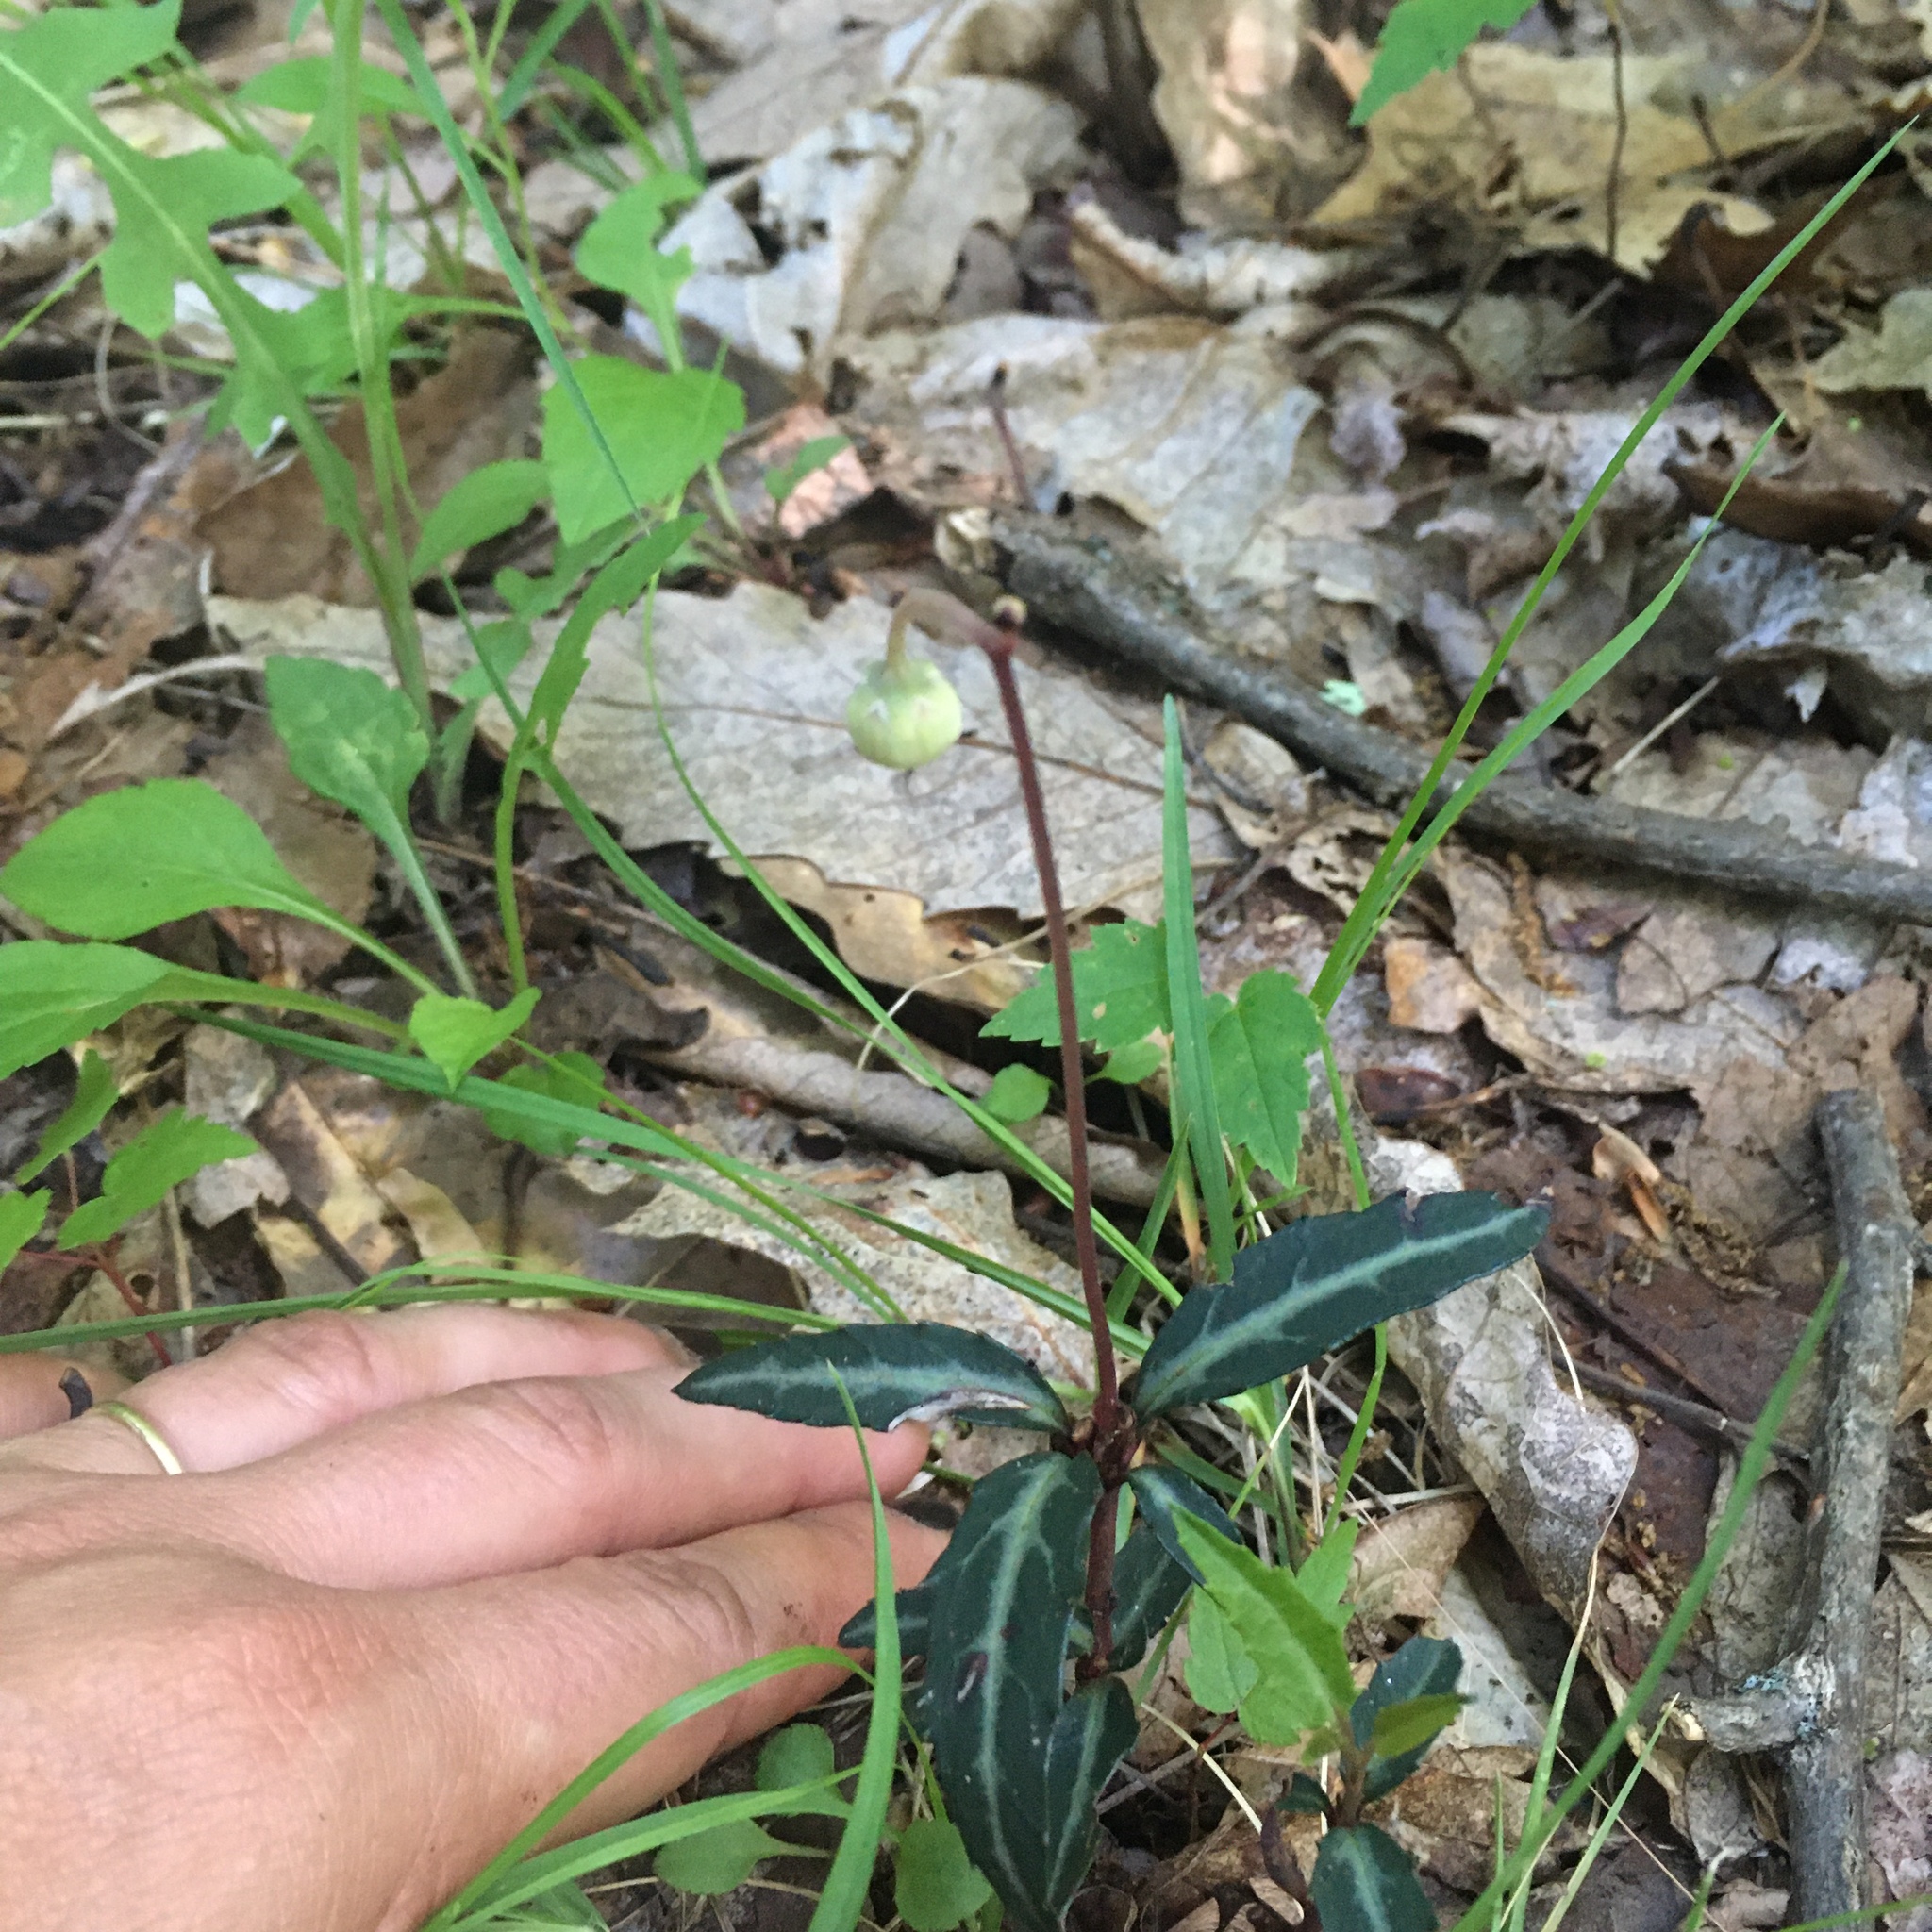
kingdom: Plantae
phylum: Tracheophyta
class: Magnoliopsida
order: Ericales
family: Ericaceae
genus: Chimaphila
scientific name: Chimaphila maculata
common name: Spotted pipsissewa
